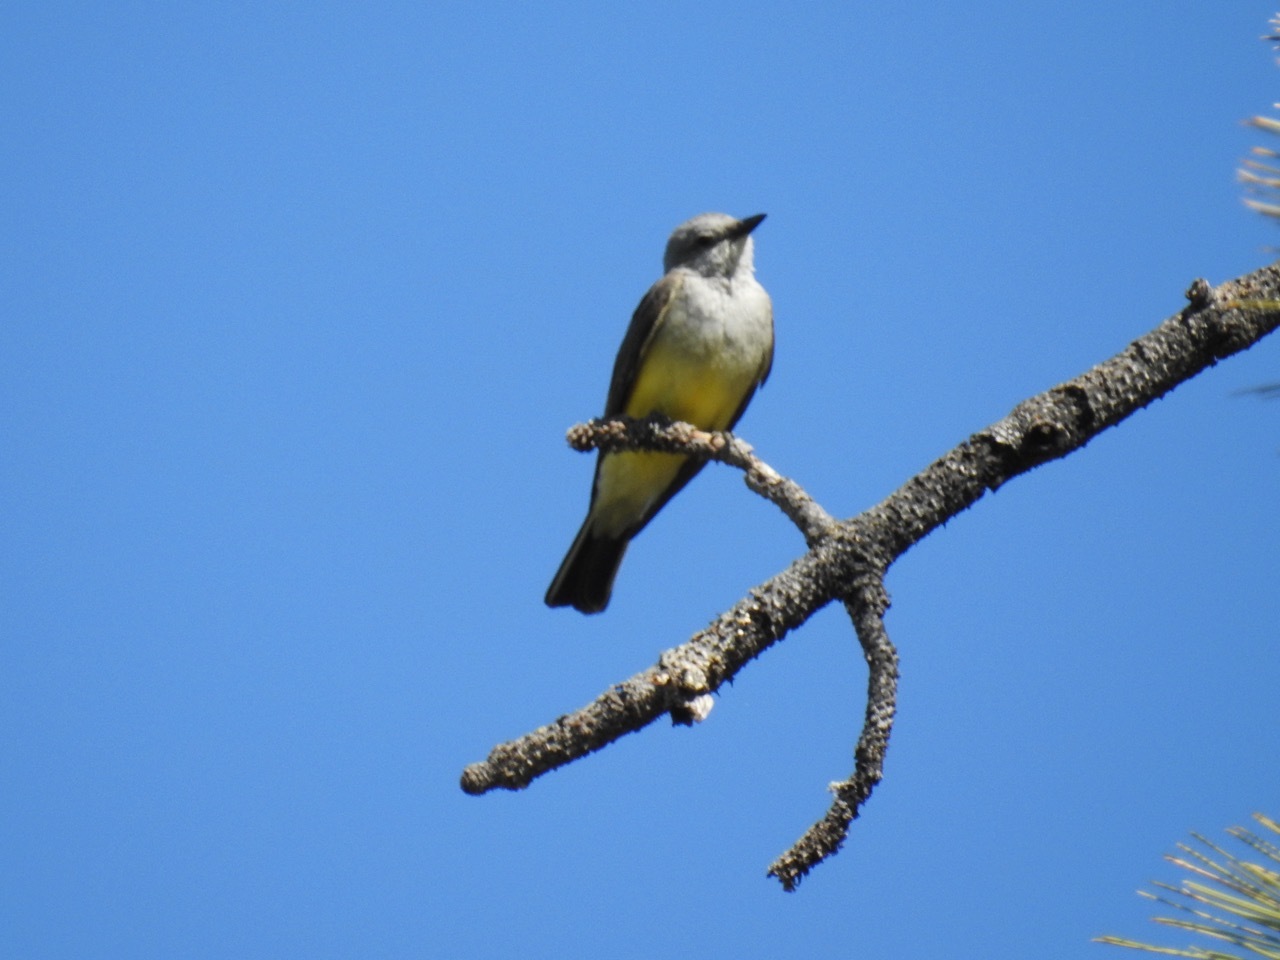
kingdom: Animalia
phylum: Chordata
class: Aves
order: Passeriformes
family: Tyrannidae
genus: Tyrannus
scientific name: Tyrannus verticalis
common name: Western kingbird
